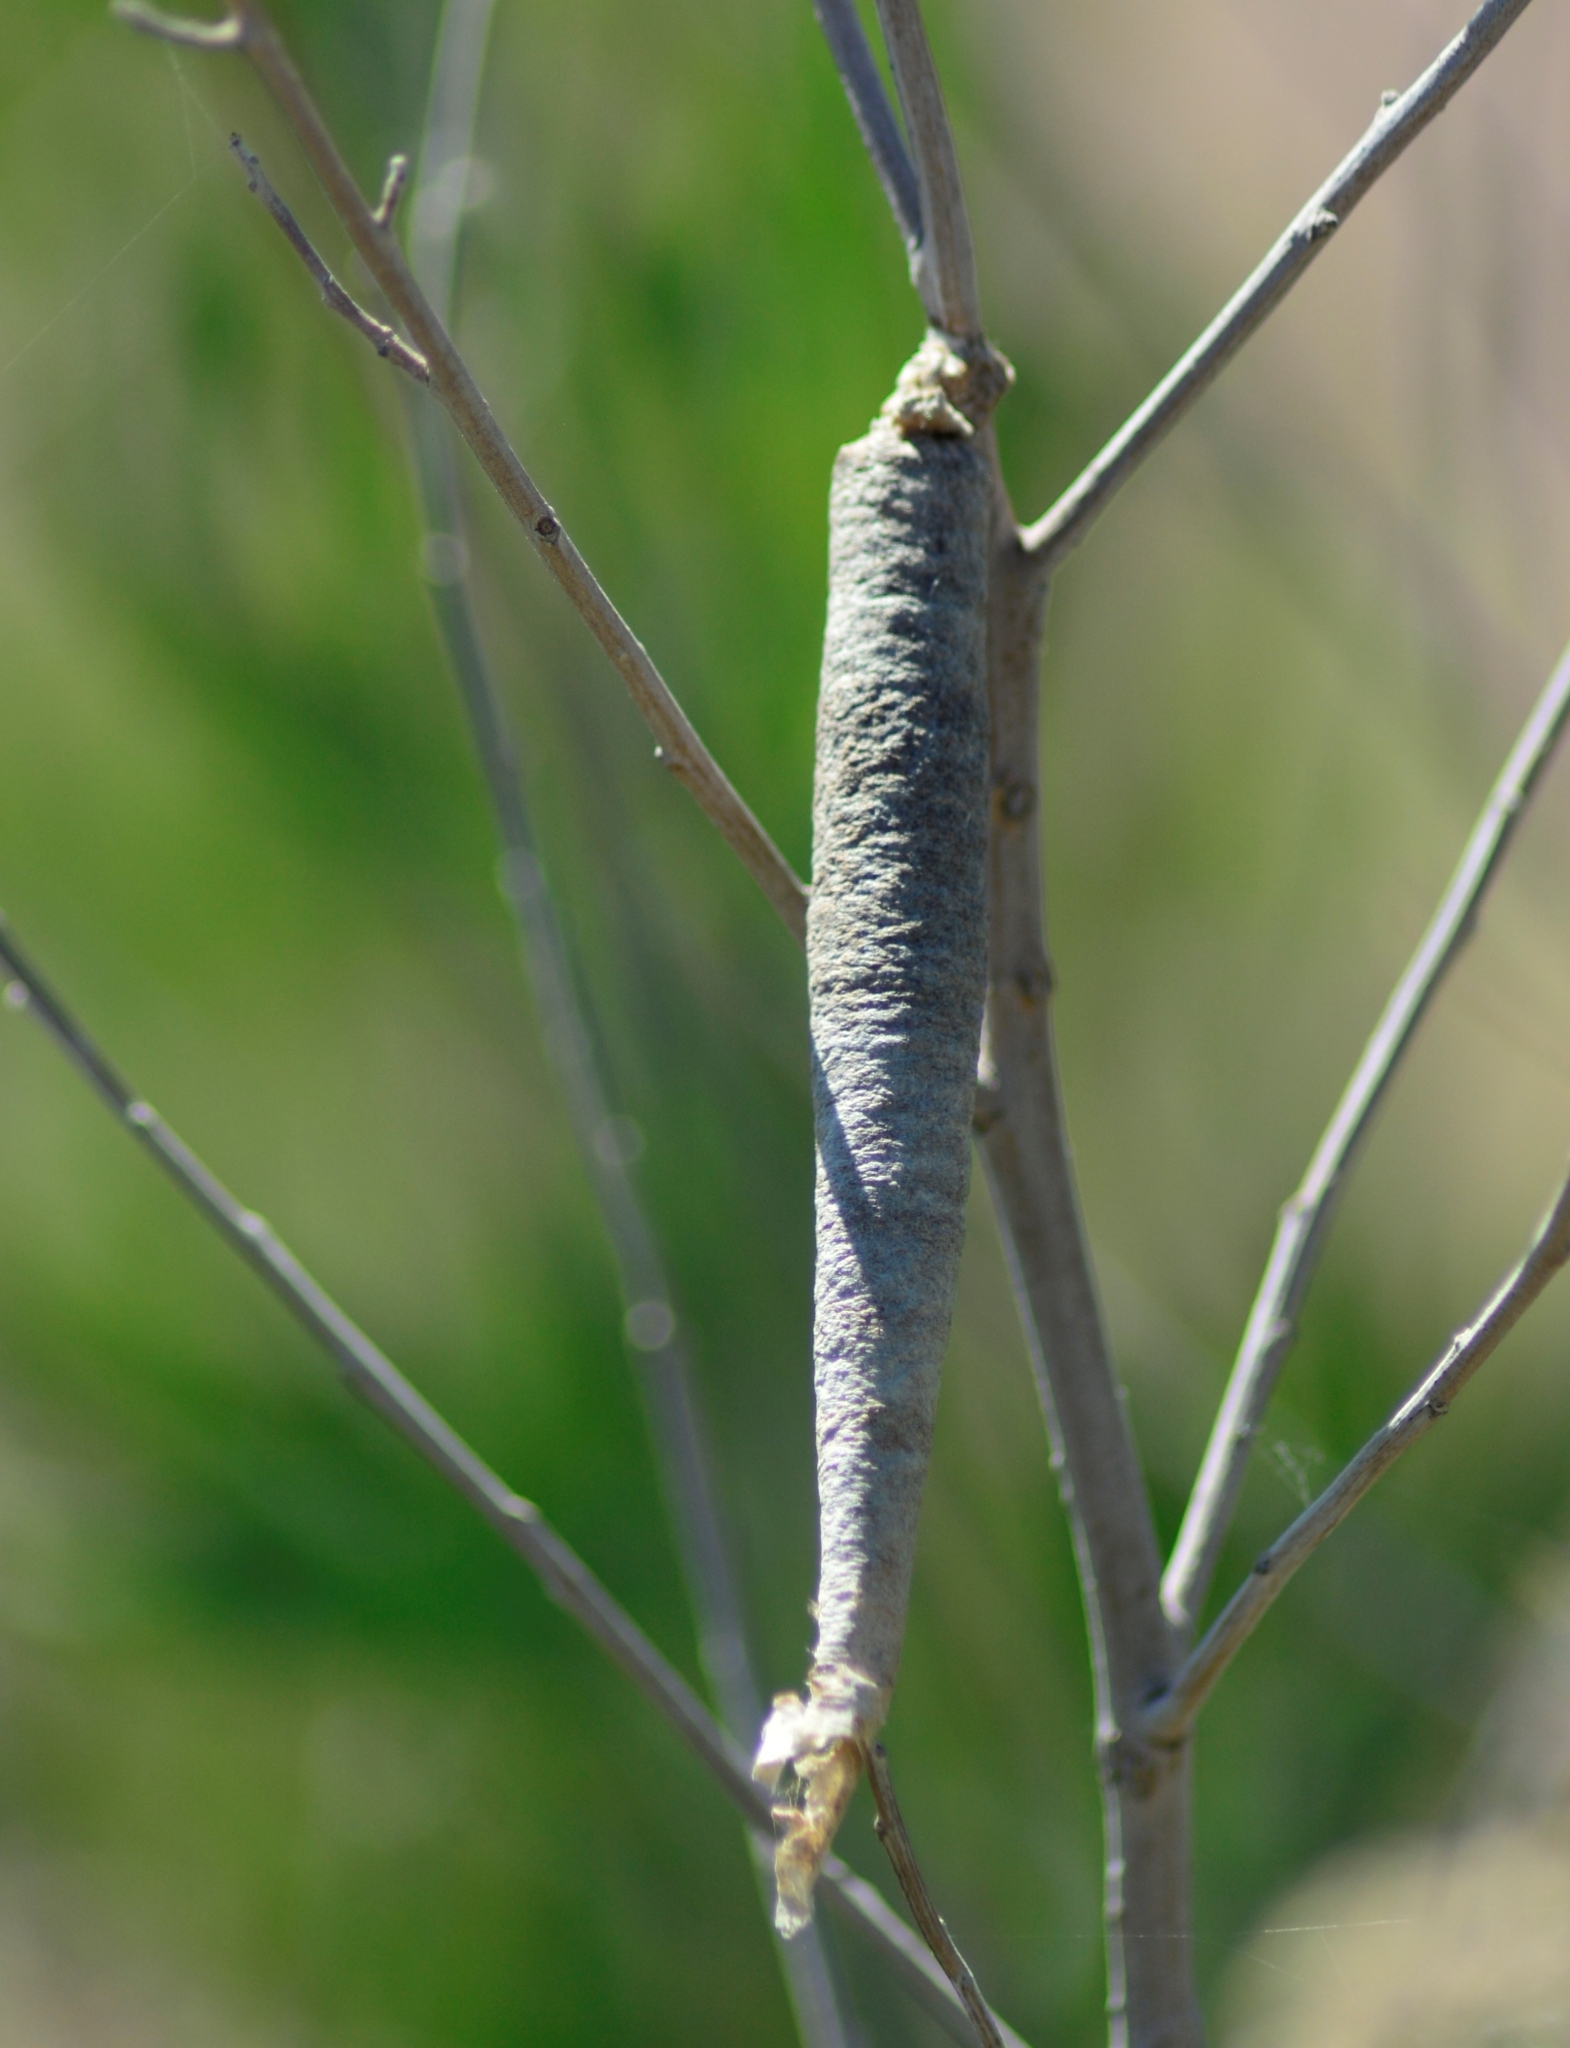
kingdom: Animalia
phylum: Arthropoda
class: Insecta
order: Lepidoptera
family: Psychidae
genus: Oiketicus
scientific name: Oiketicus geyeri
